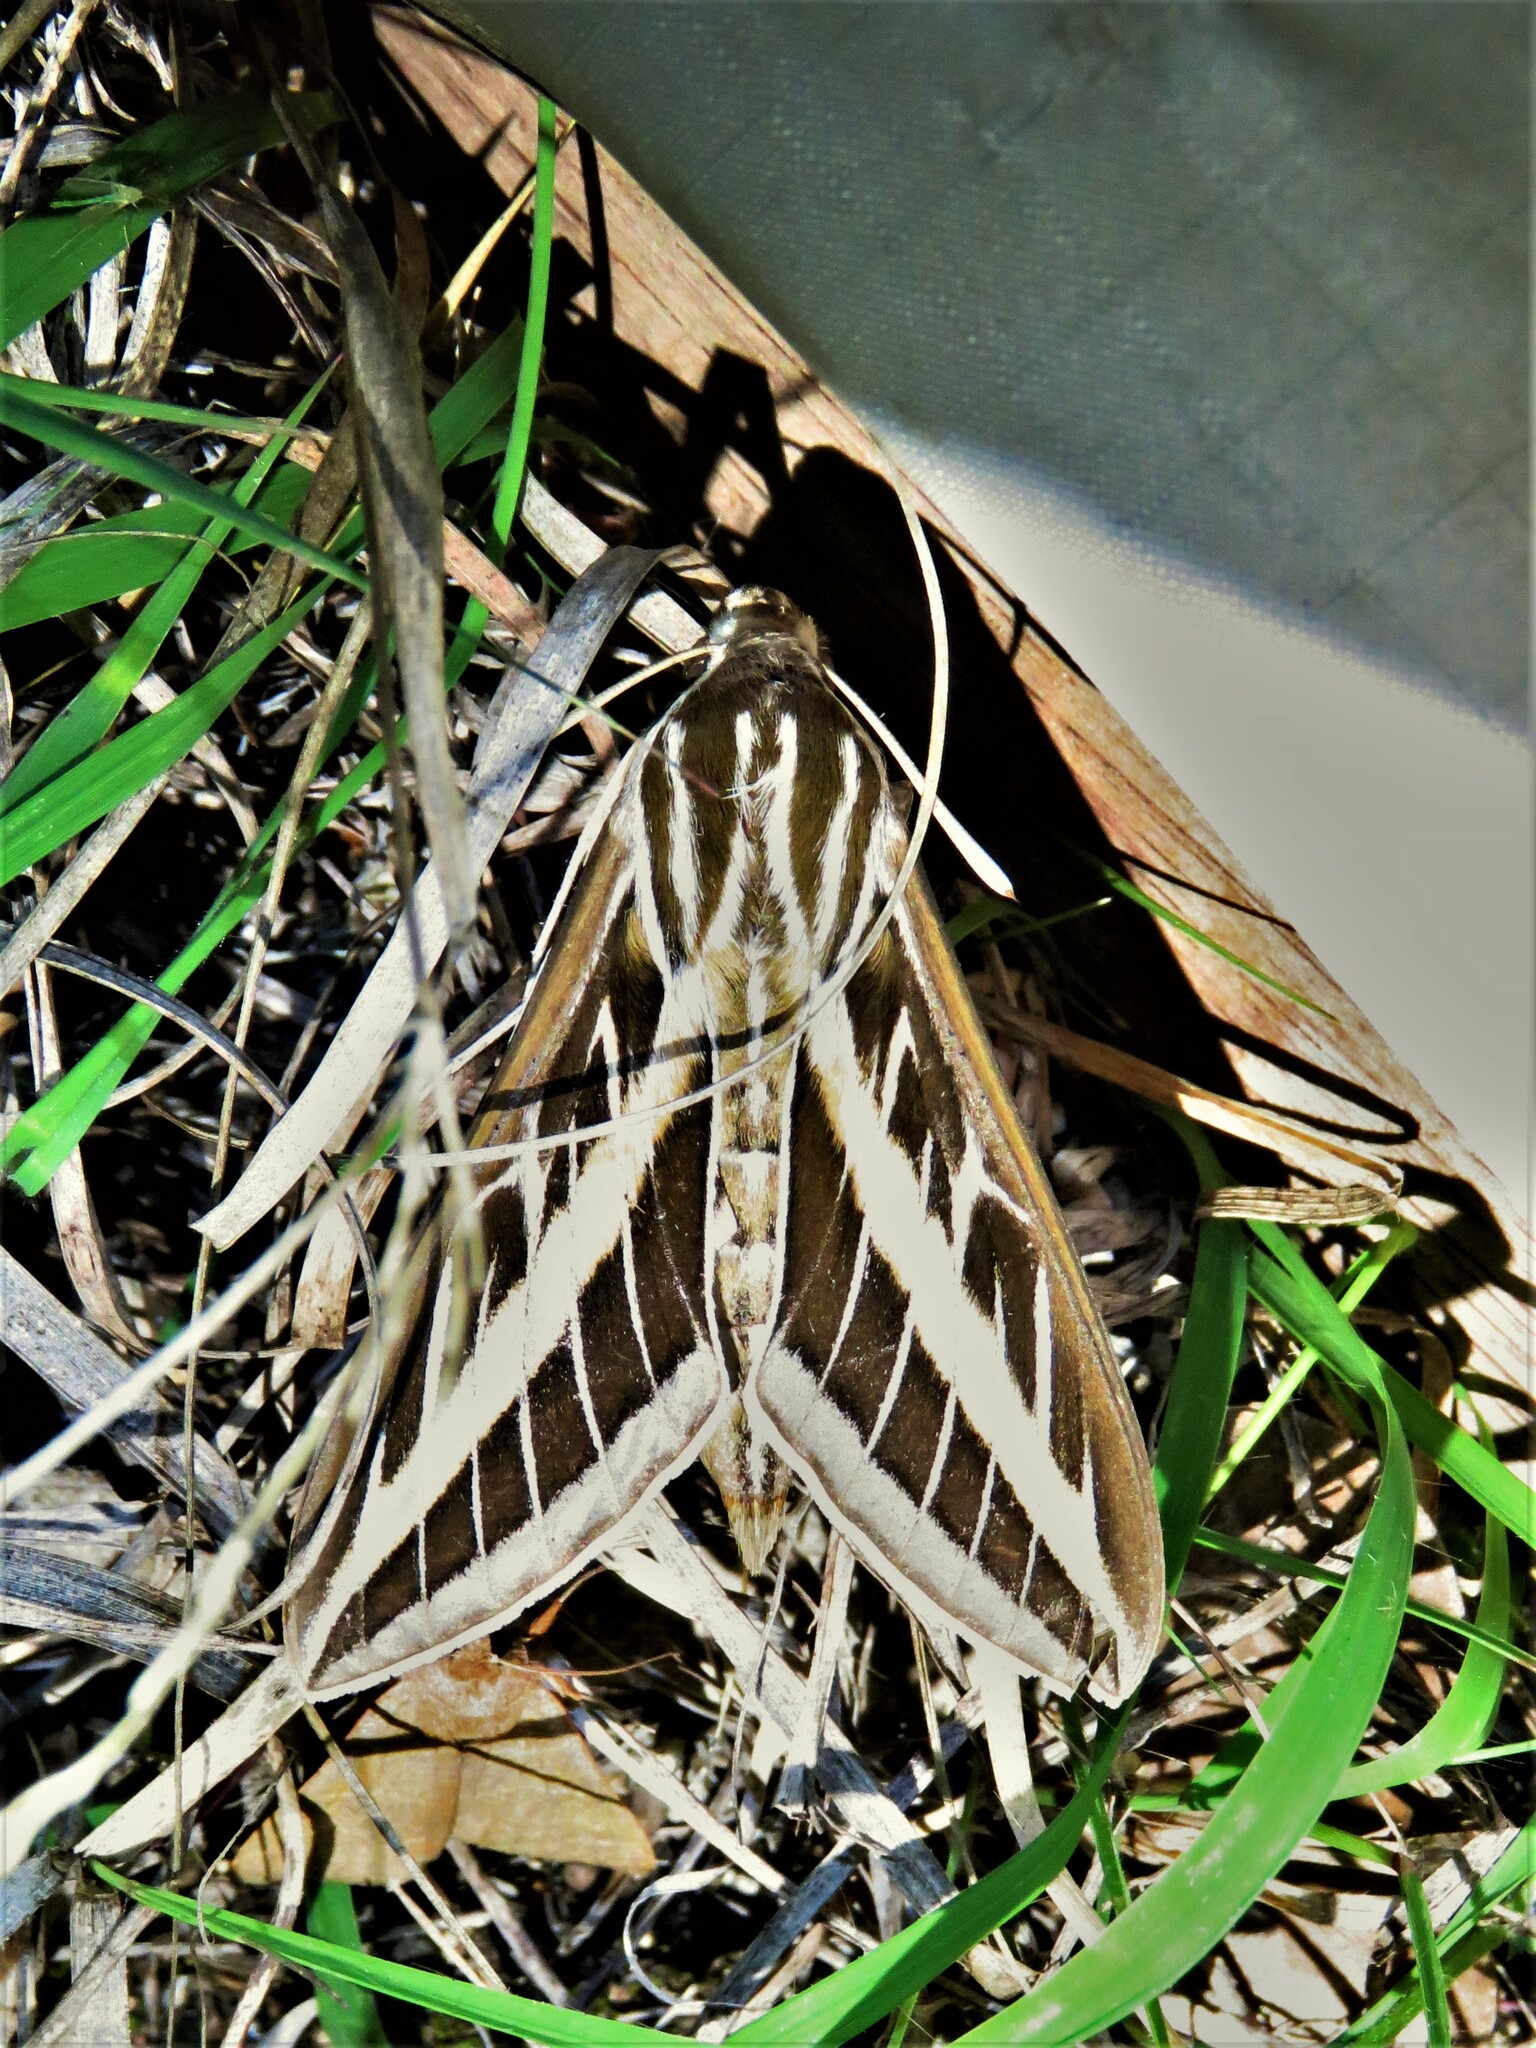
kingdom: Animalia
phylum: Arthropoda
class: Insecta
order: Lepidoptera
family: Sphingidae
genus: Hyles
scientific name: Hyles lineata
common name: White-lined sphinx
